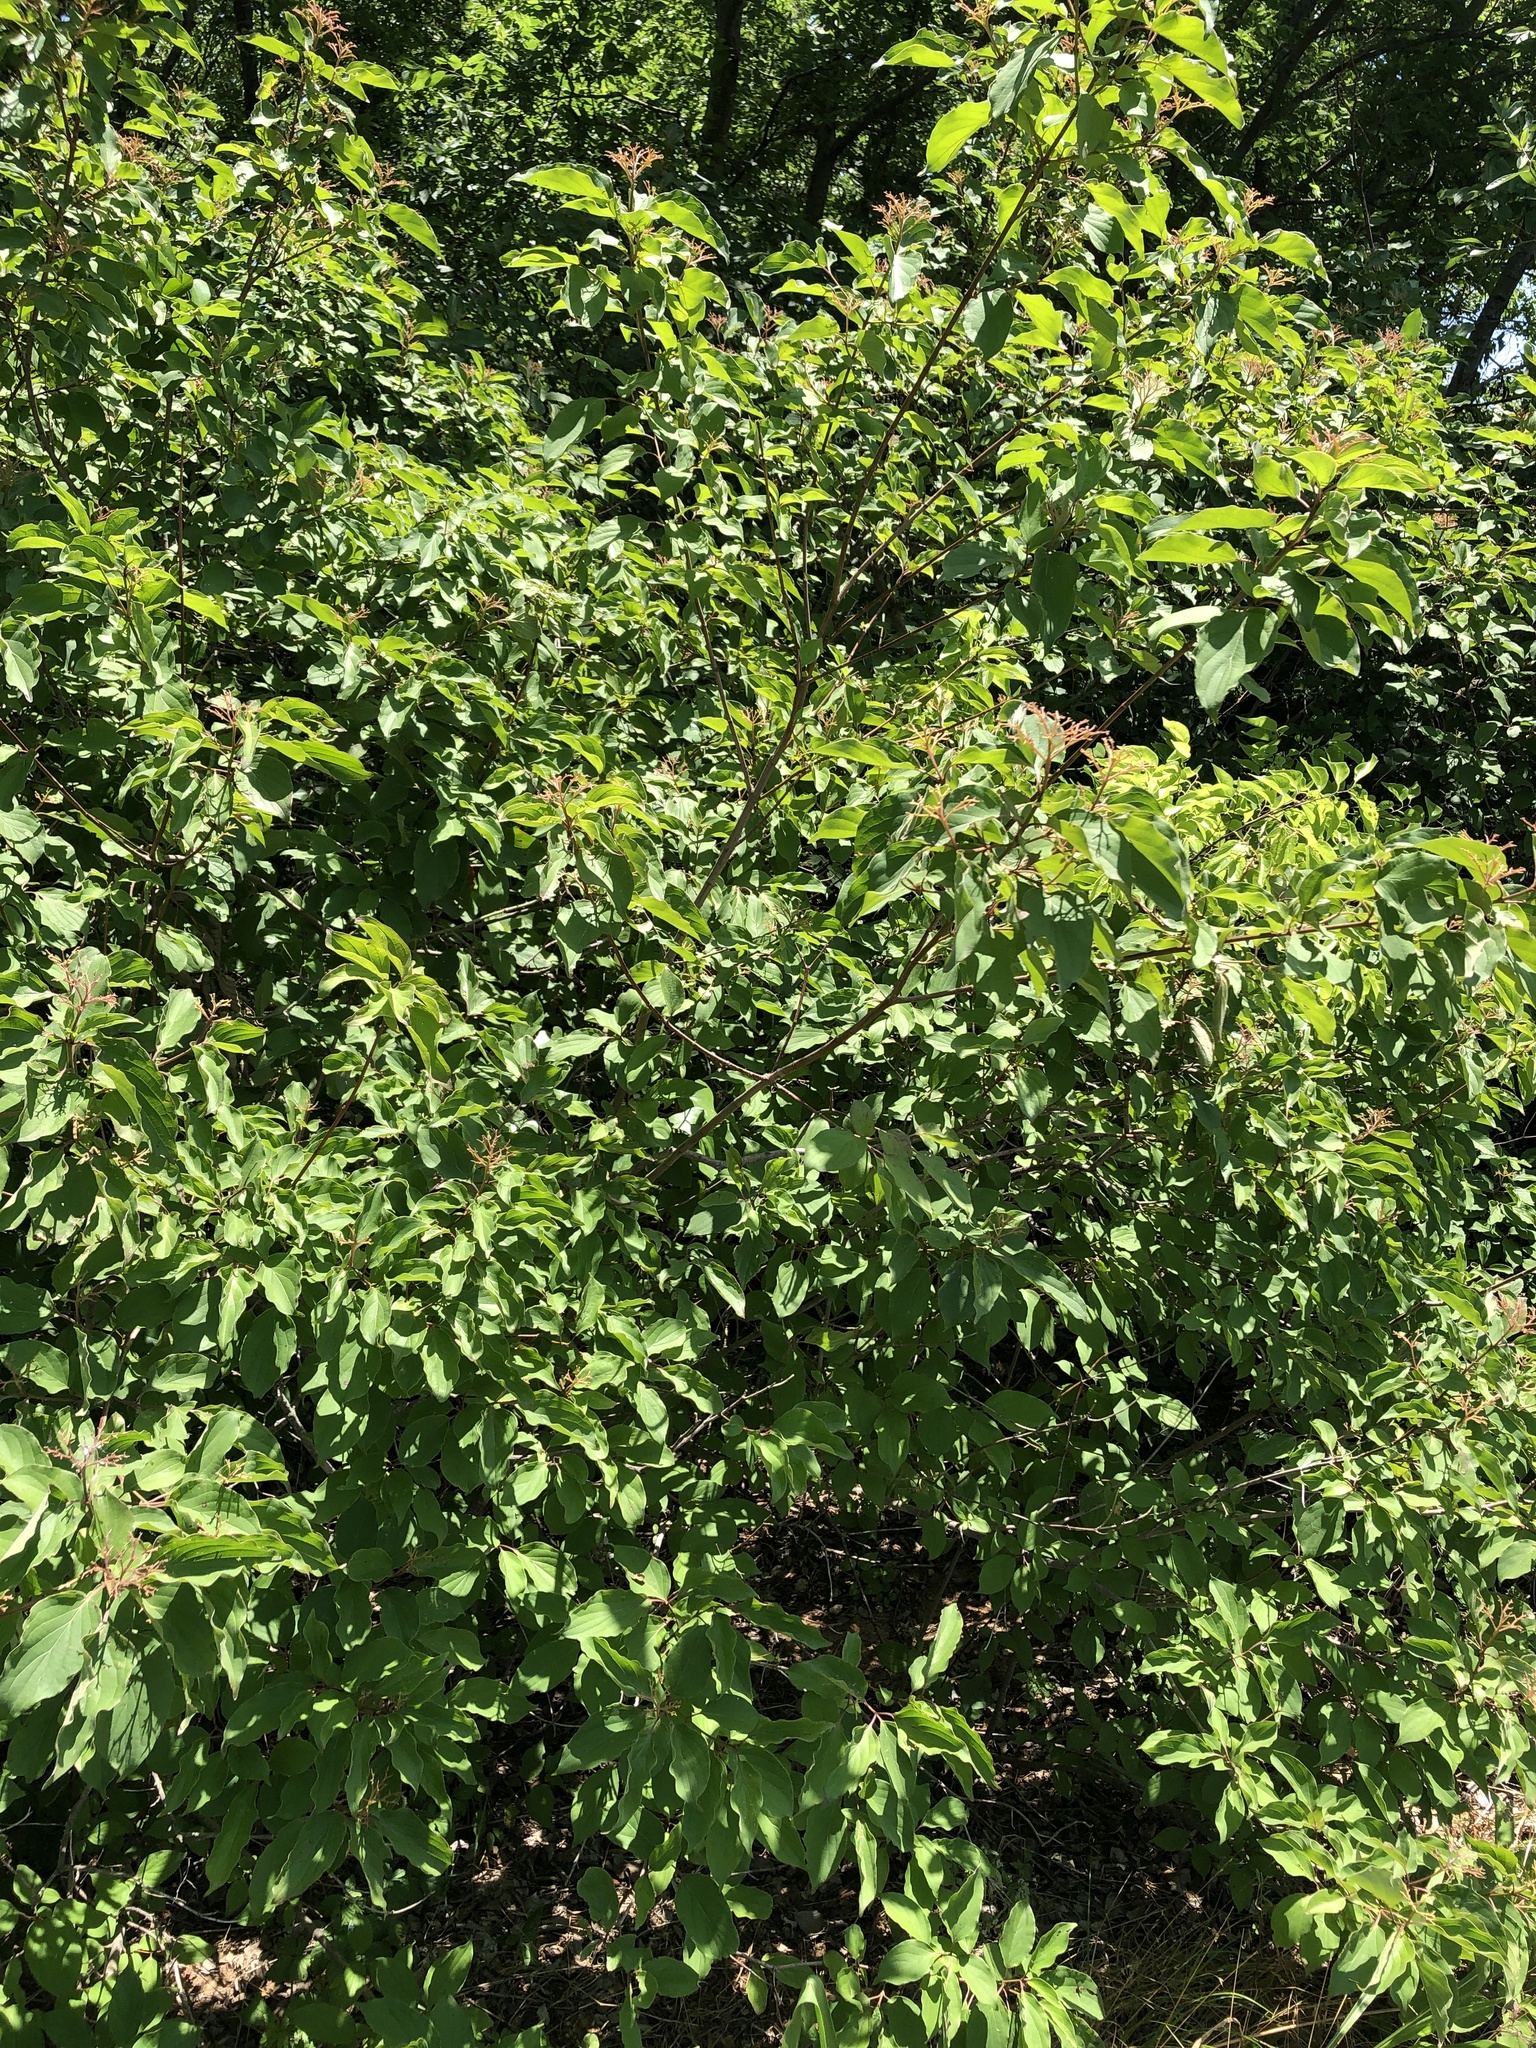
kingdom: Plantae
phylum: Tracheophyta
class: Magnoliopsida
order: Cornales
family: Cornaceae
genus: Cornus
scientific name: Cornus drummondii
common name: Rough-leaf dogwood
